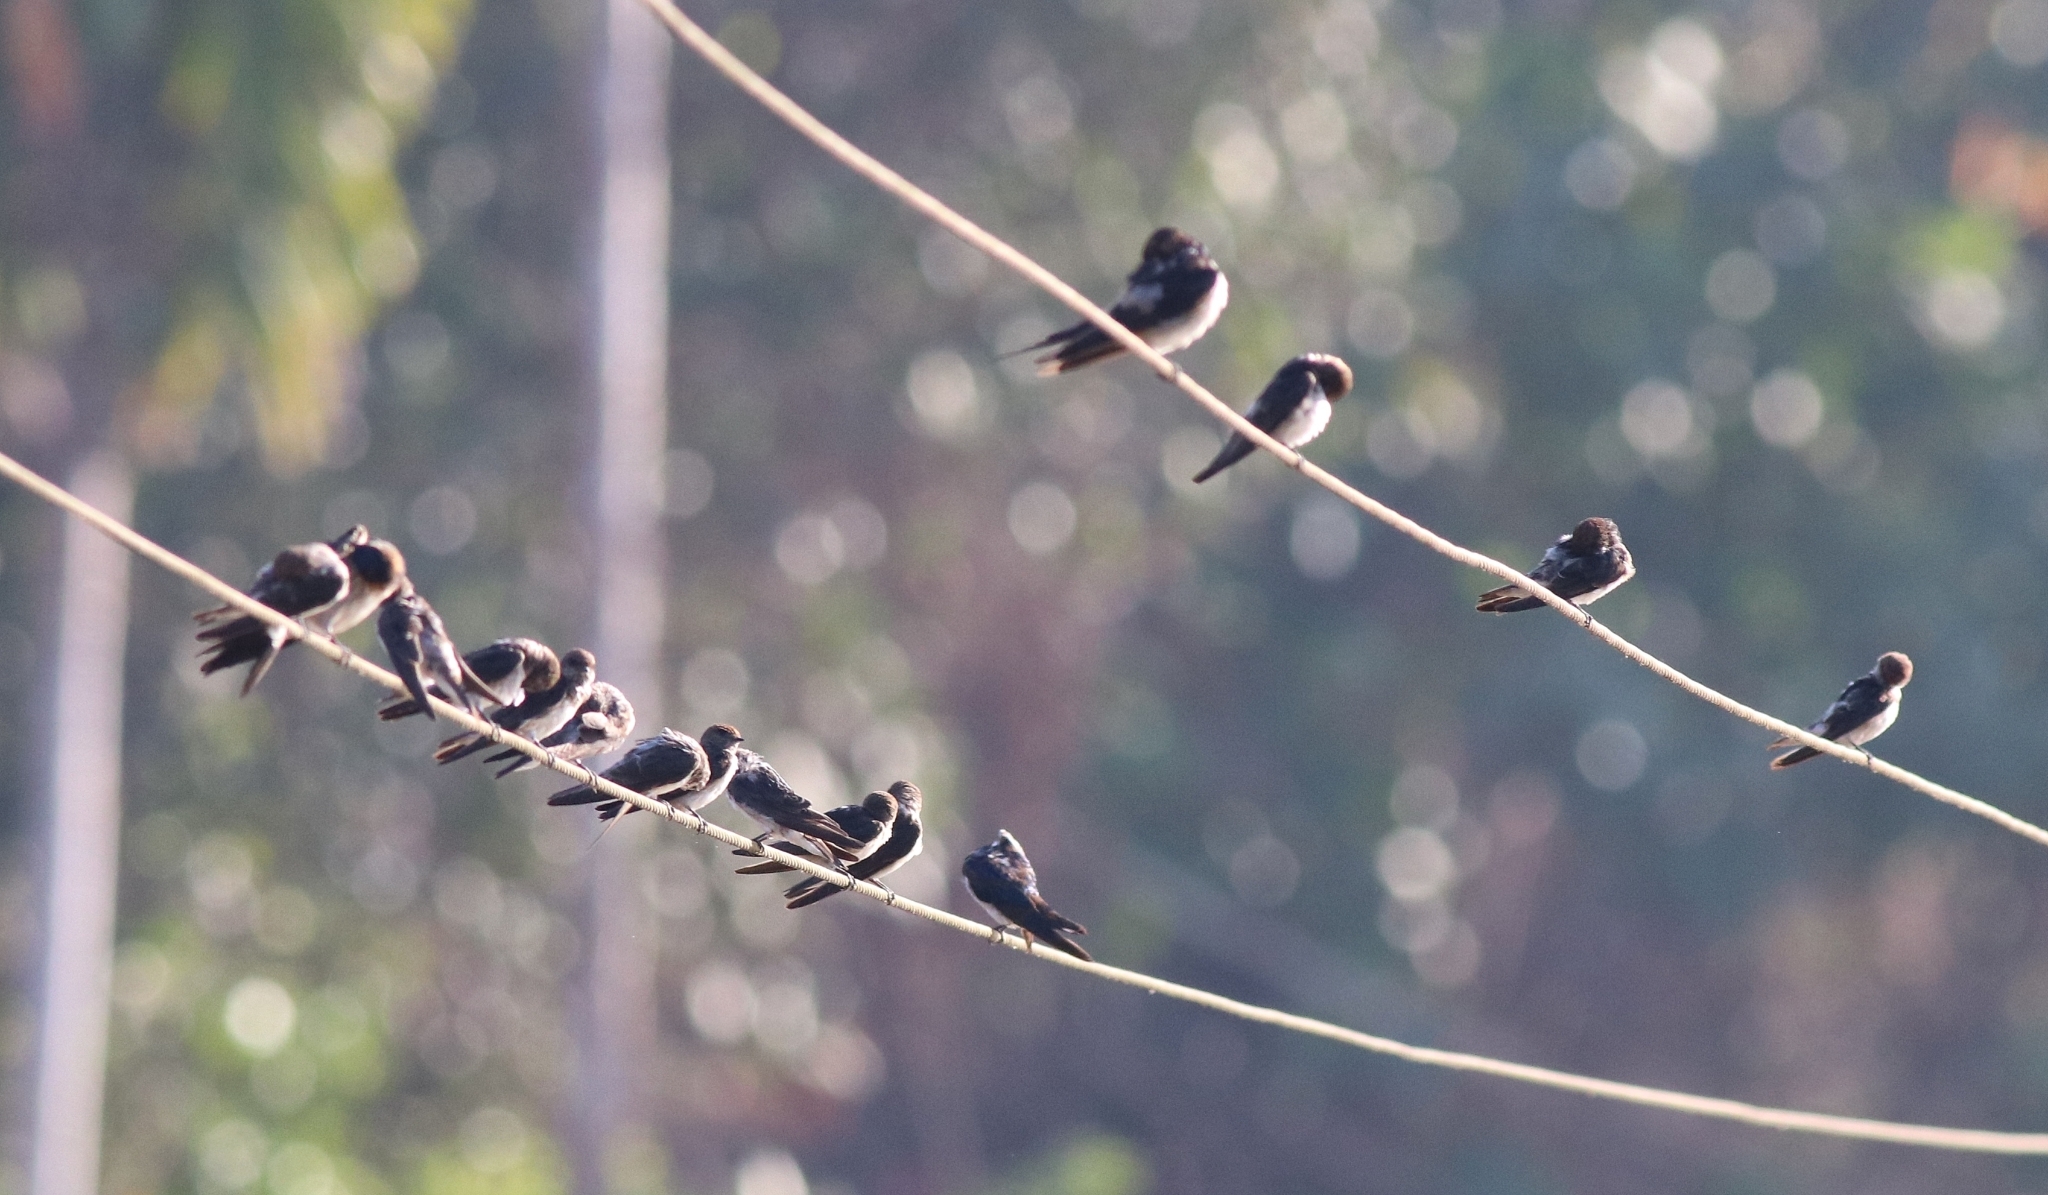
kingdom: Animalia
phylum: Chordata
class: Aves
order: Passeriformes
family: Hirundinidae
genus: Hirundo
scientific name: Hirundo smithii
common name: Wire-tailed swallow
